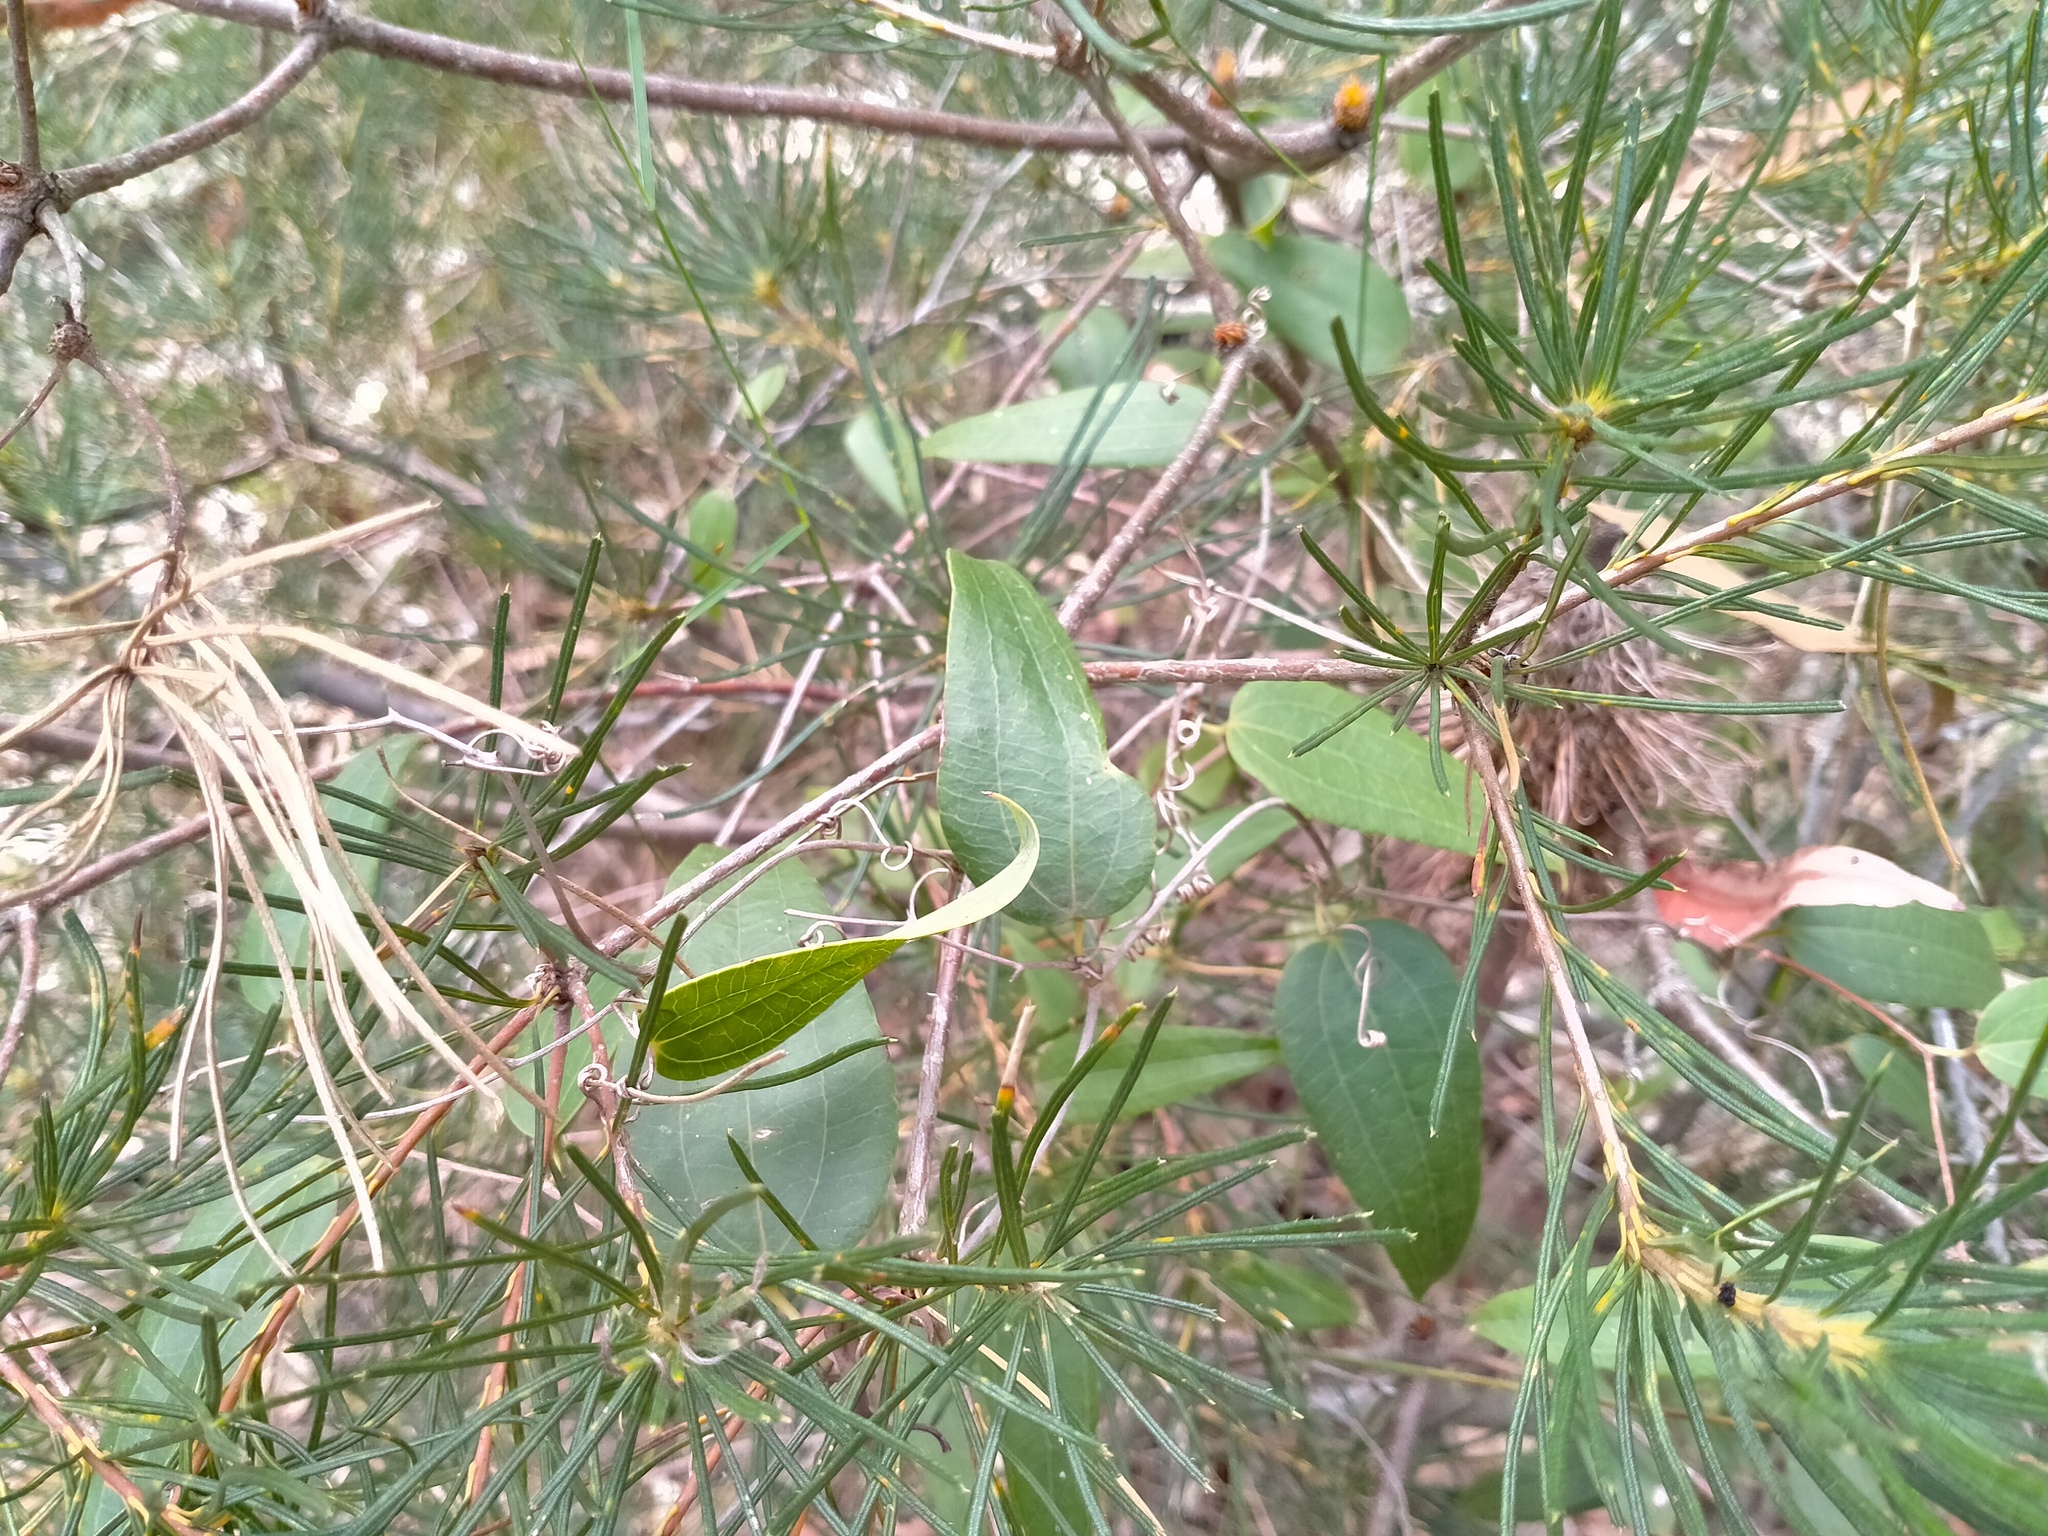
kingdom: Plantae
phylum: Tracheophyta
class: Liliopsida
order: Liliales
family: Smilacaceae
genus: Smilax
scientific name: Smilax glyciphylla
